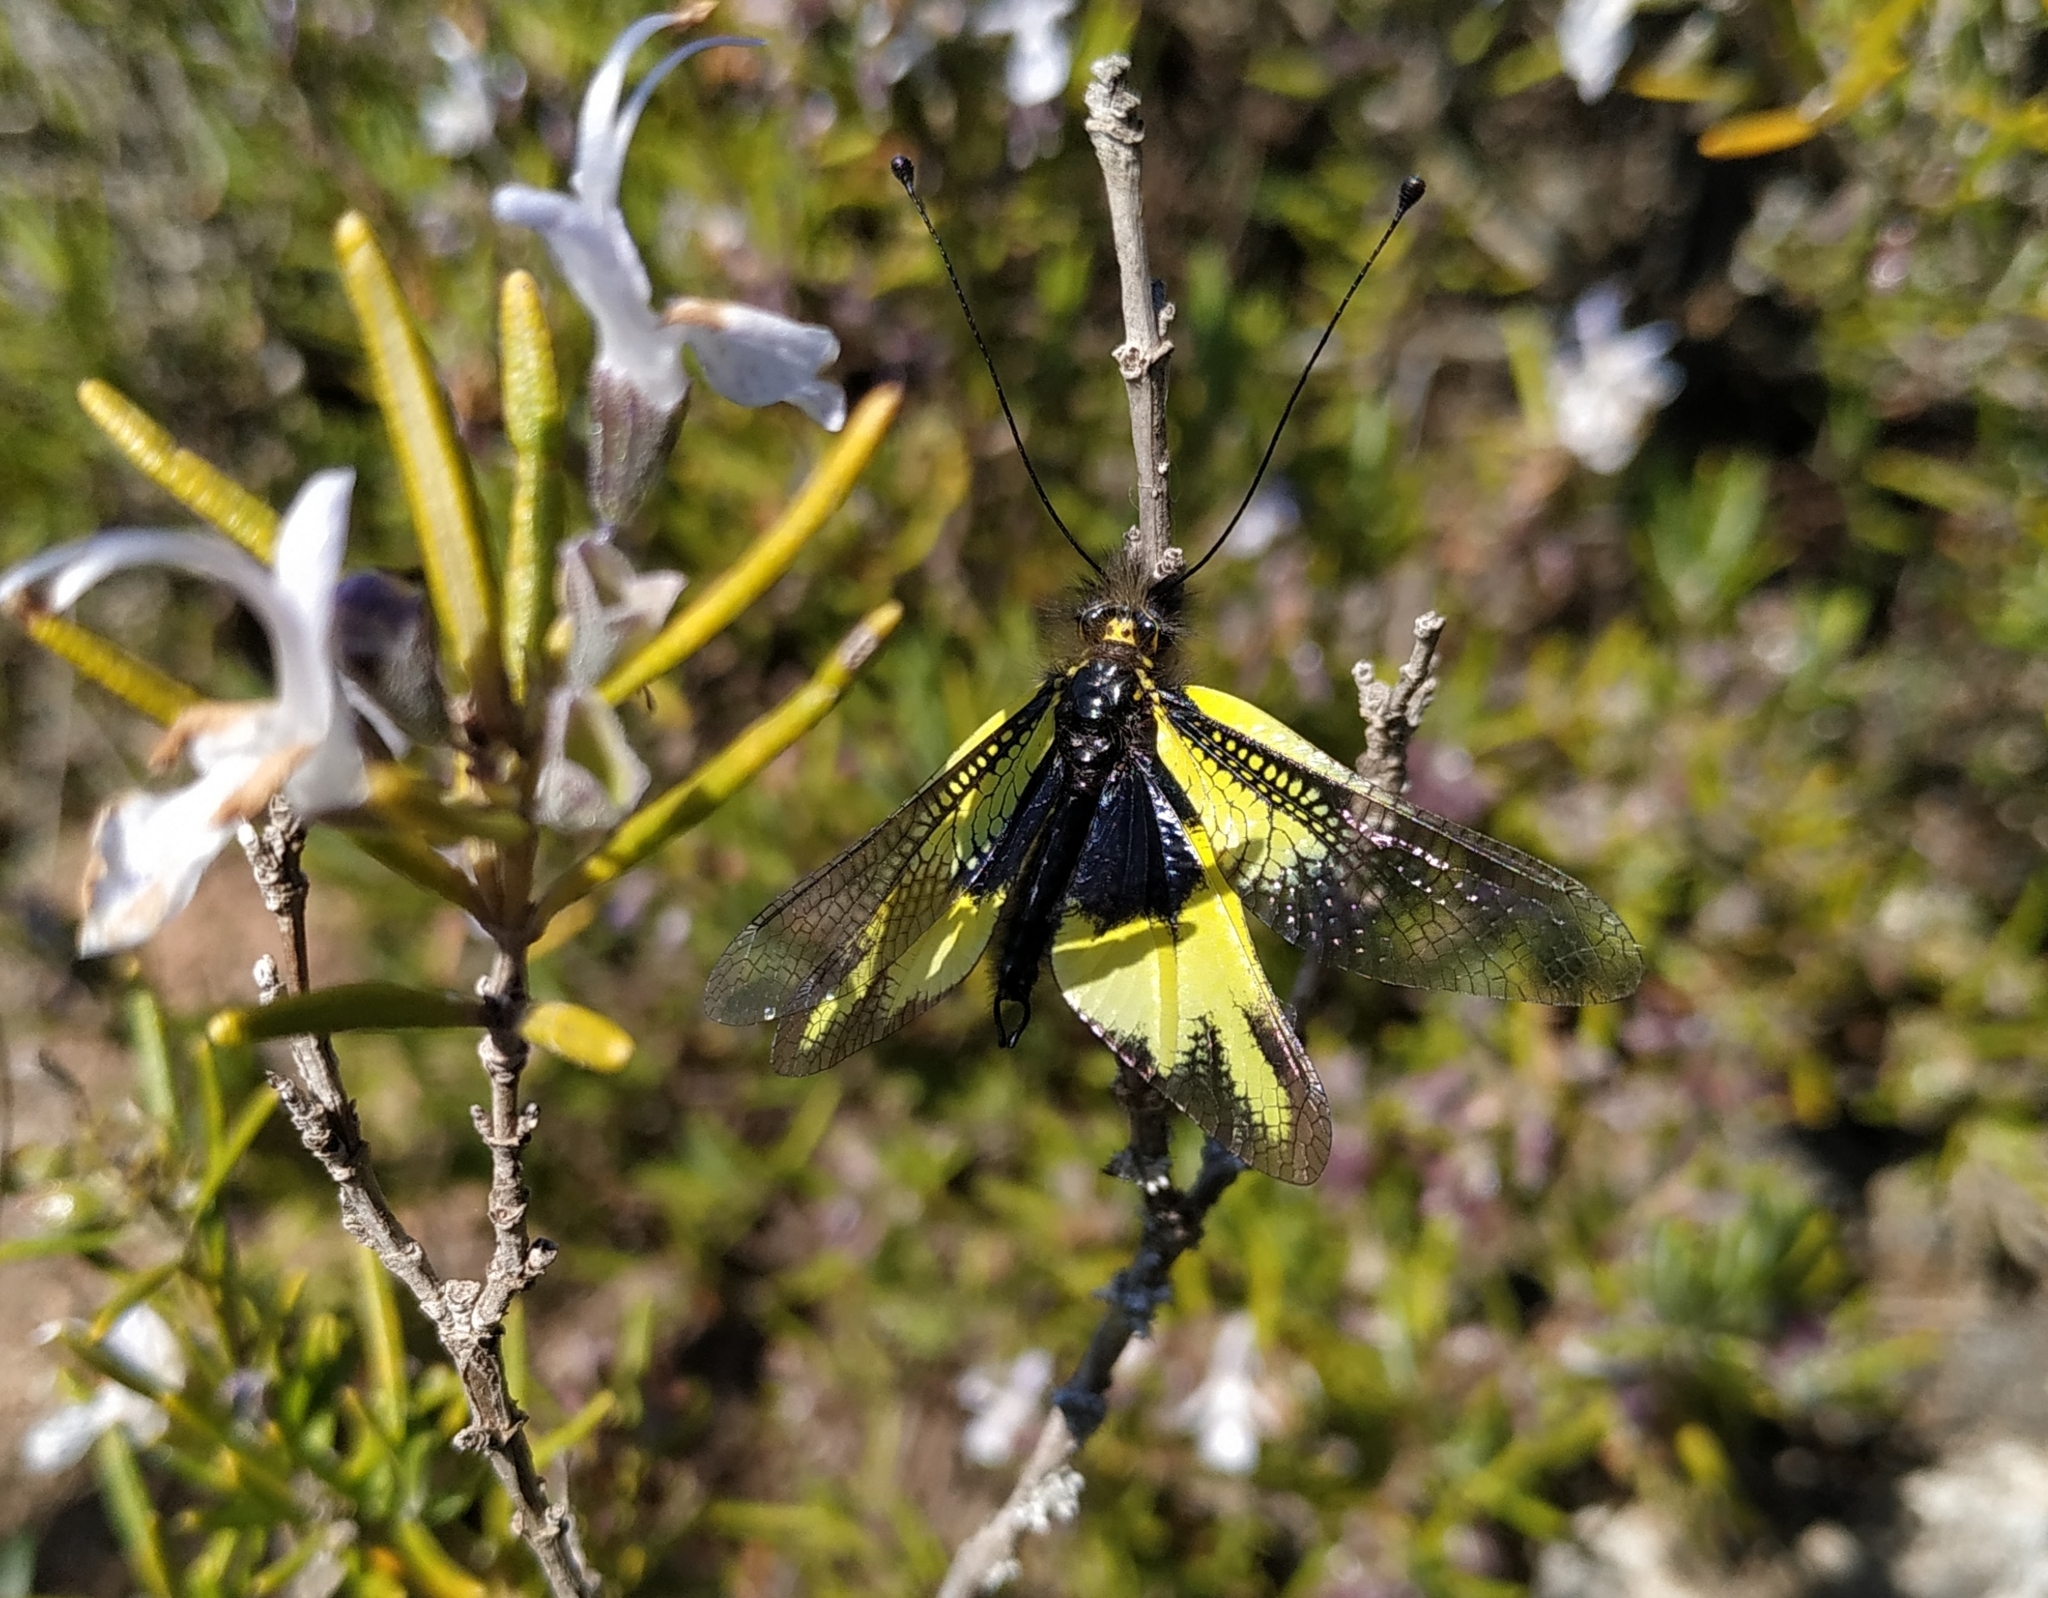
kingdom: Animalia
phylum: Arthropoda
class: Insecta
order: Neuroptera
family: Ascalaphidae
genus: Libelloides
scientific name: Libelloides cunii
